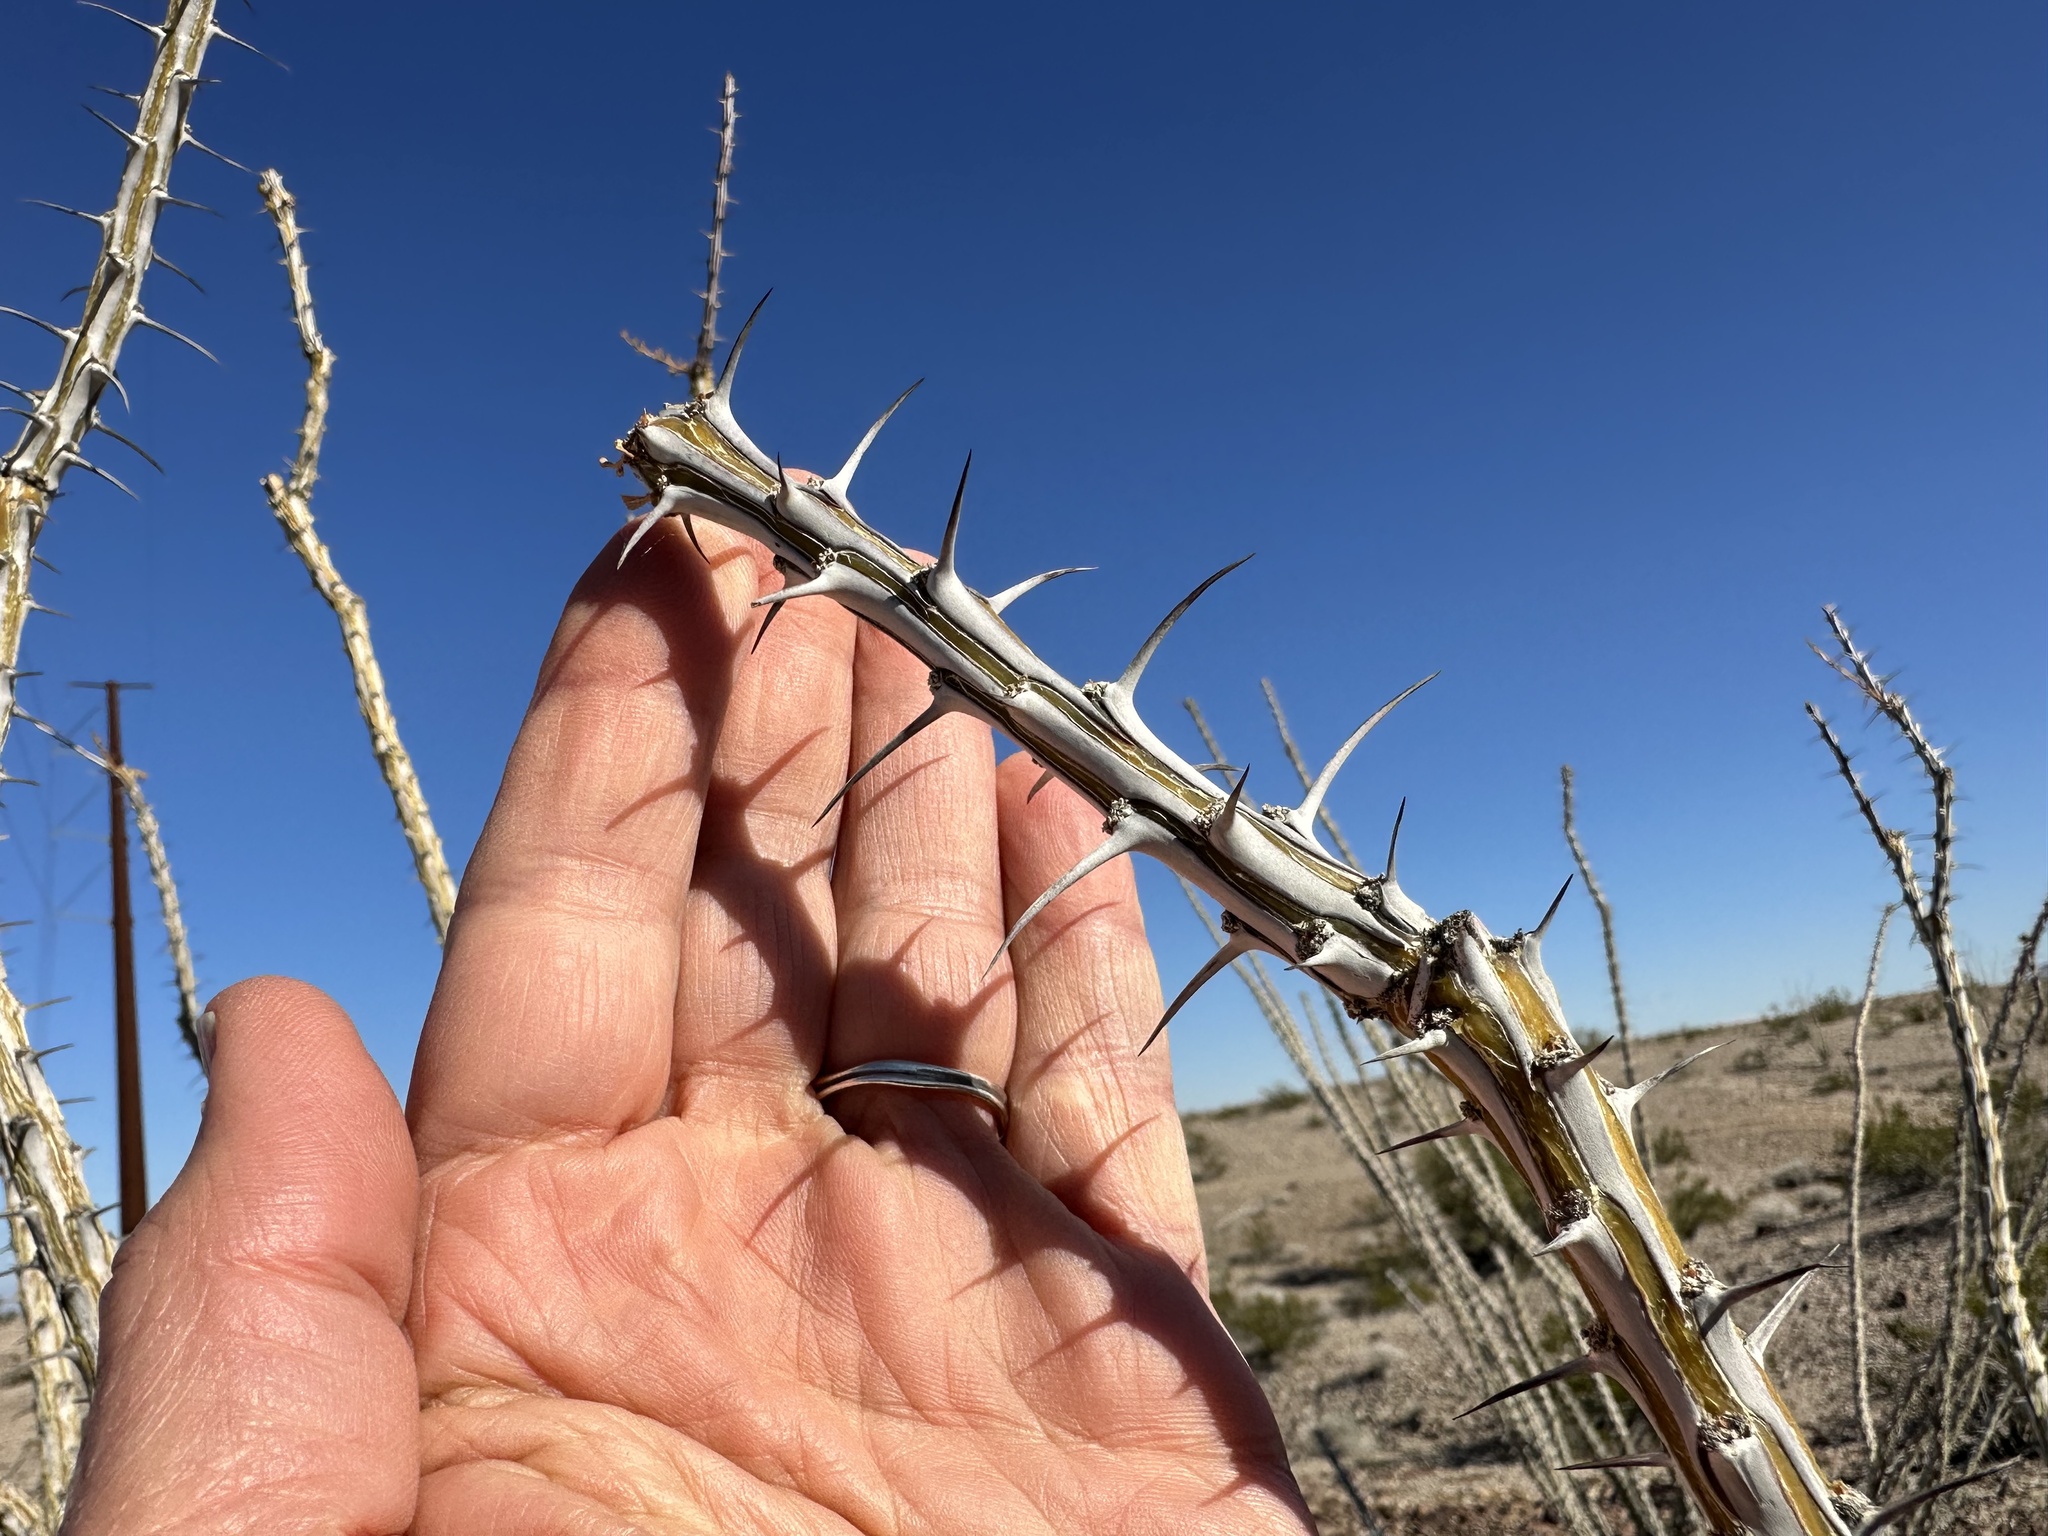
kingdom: Plantae
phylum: Tracheophyta
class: Magnoliopsida
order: Ericales
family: Fouquieriaceae
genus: Fouquieria
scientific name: Fouquieria splendens
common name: Vine-cactus
